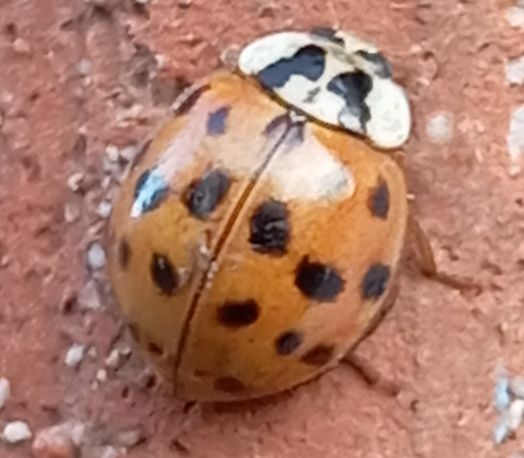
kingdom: Animalia
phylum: Arthropoda
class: Insecta
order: Coleoptera
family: Coccinellidae
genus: Harmonia
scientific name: Harmonia axyridis
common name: Harlequin ladybird
